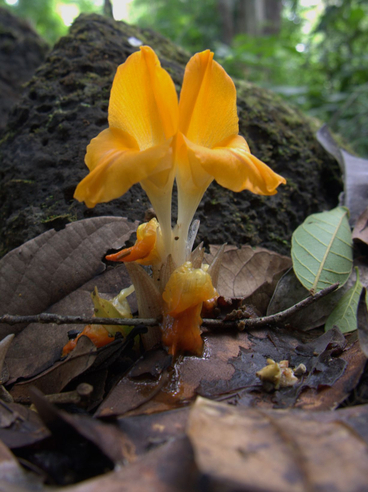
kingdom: Plantae
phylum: Tracheophyta
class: Liliopsida
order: Zingiberales
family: Zingiberaceae
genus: Curcuma
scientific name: Curcuma xanthella
